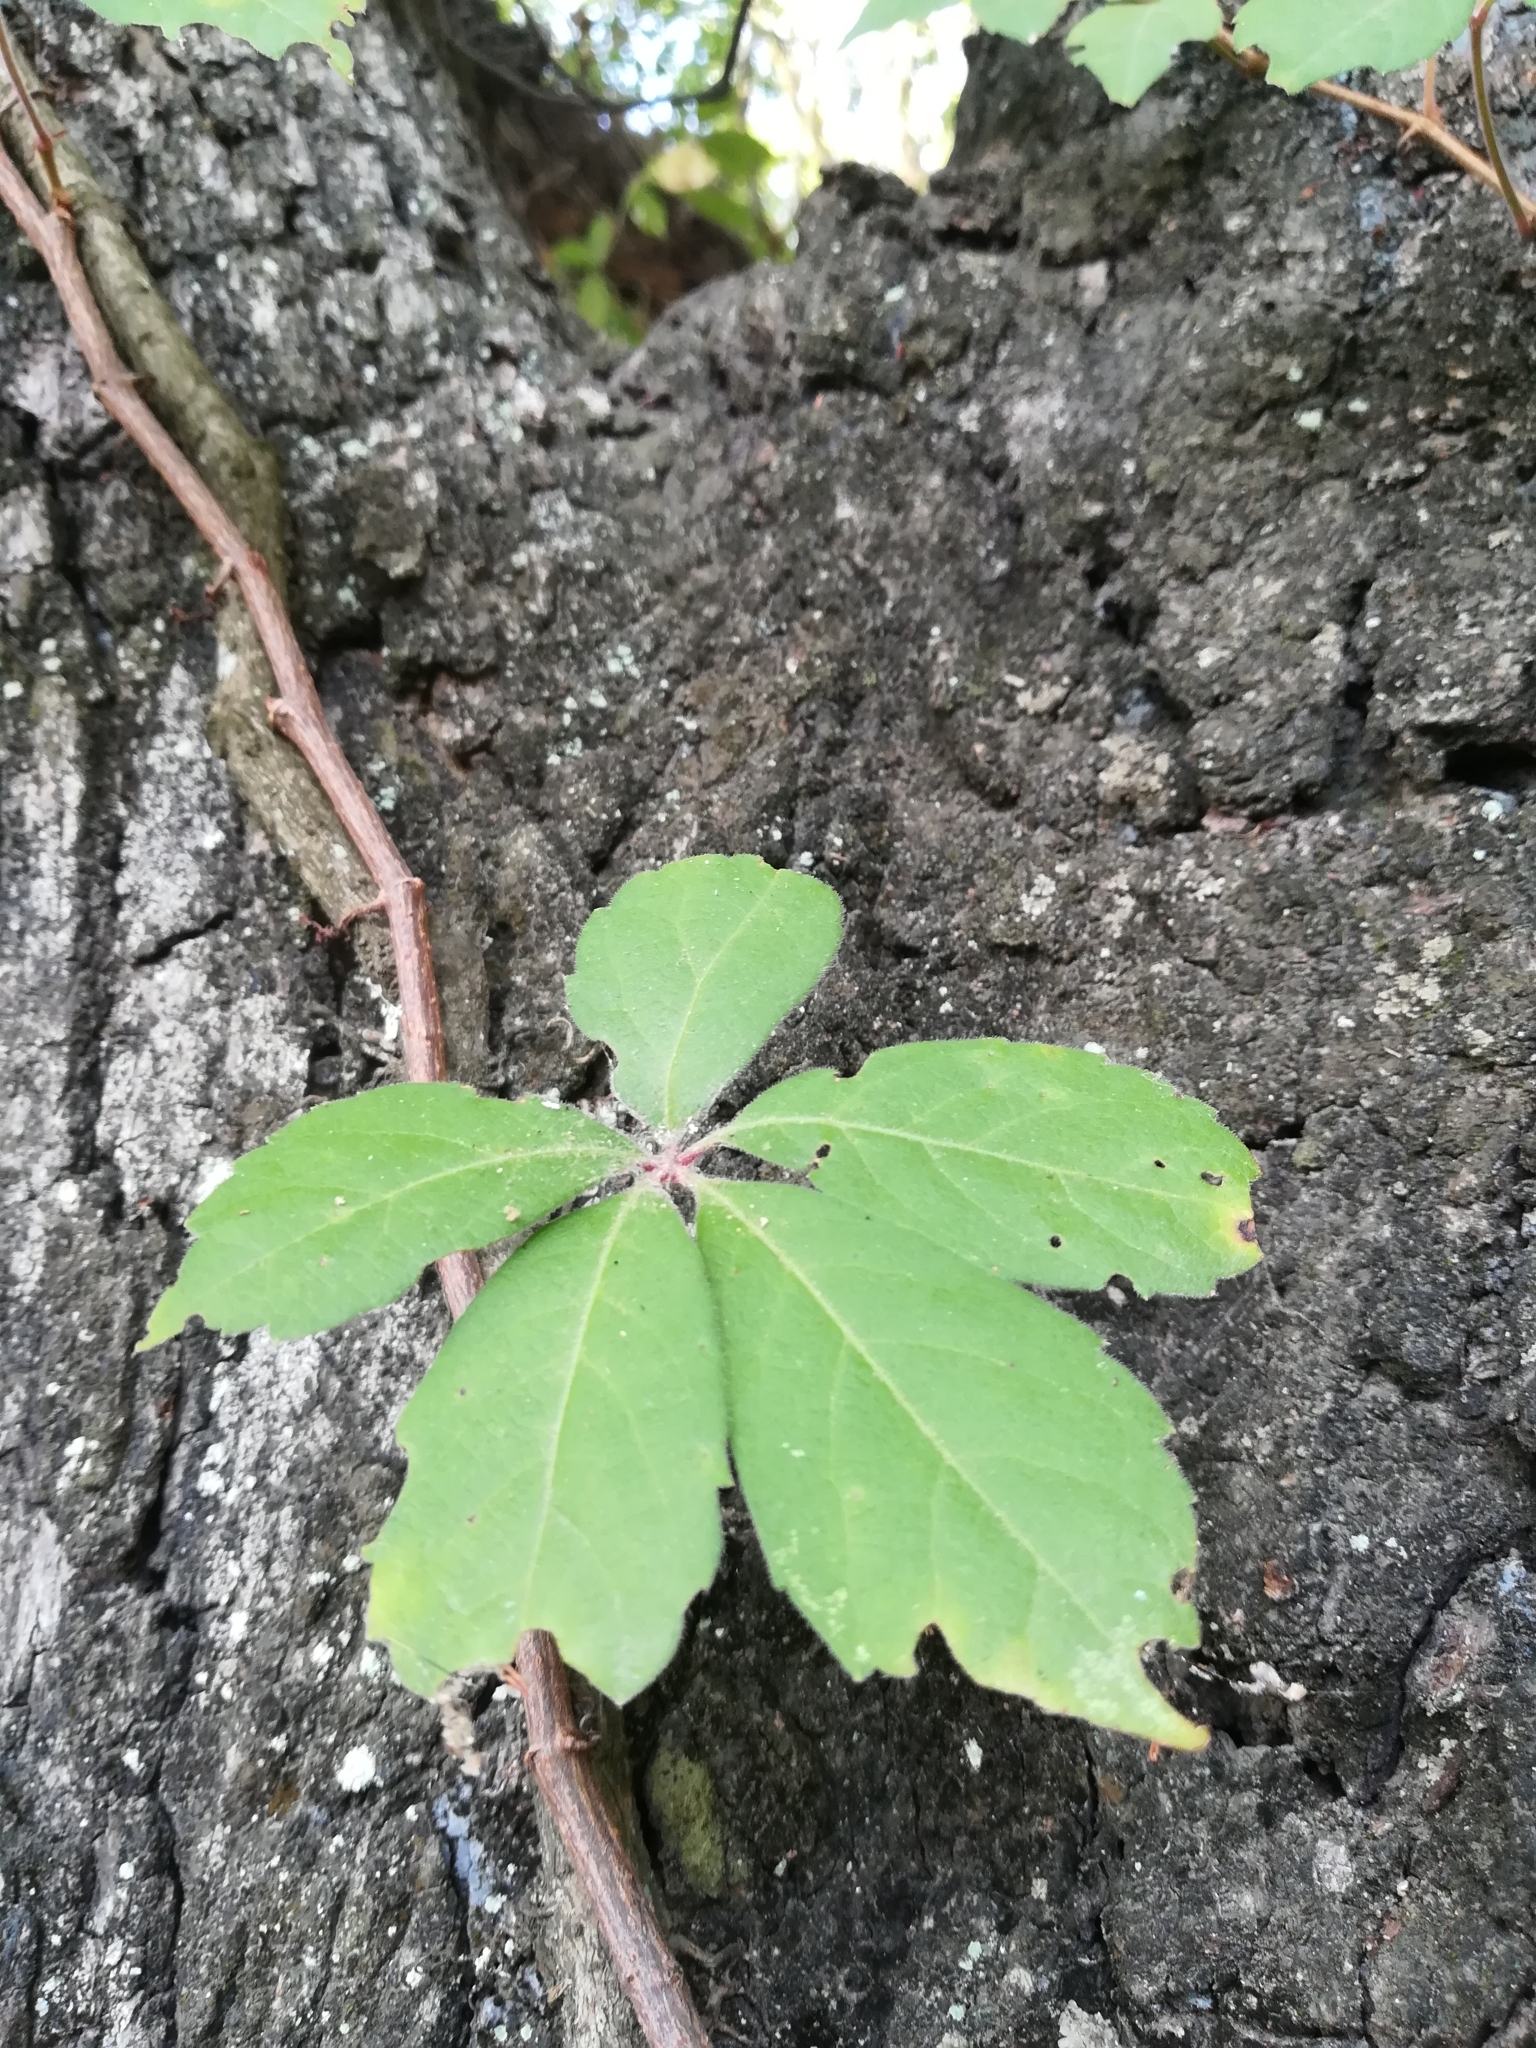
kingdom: Plantae
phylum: Tracheophyta
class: Magnoliopsida
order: Vitales
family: Vitaceae
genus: Parthenocissus
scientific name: Parthenocissus quinquefolia
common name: Virginia-creeper
